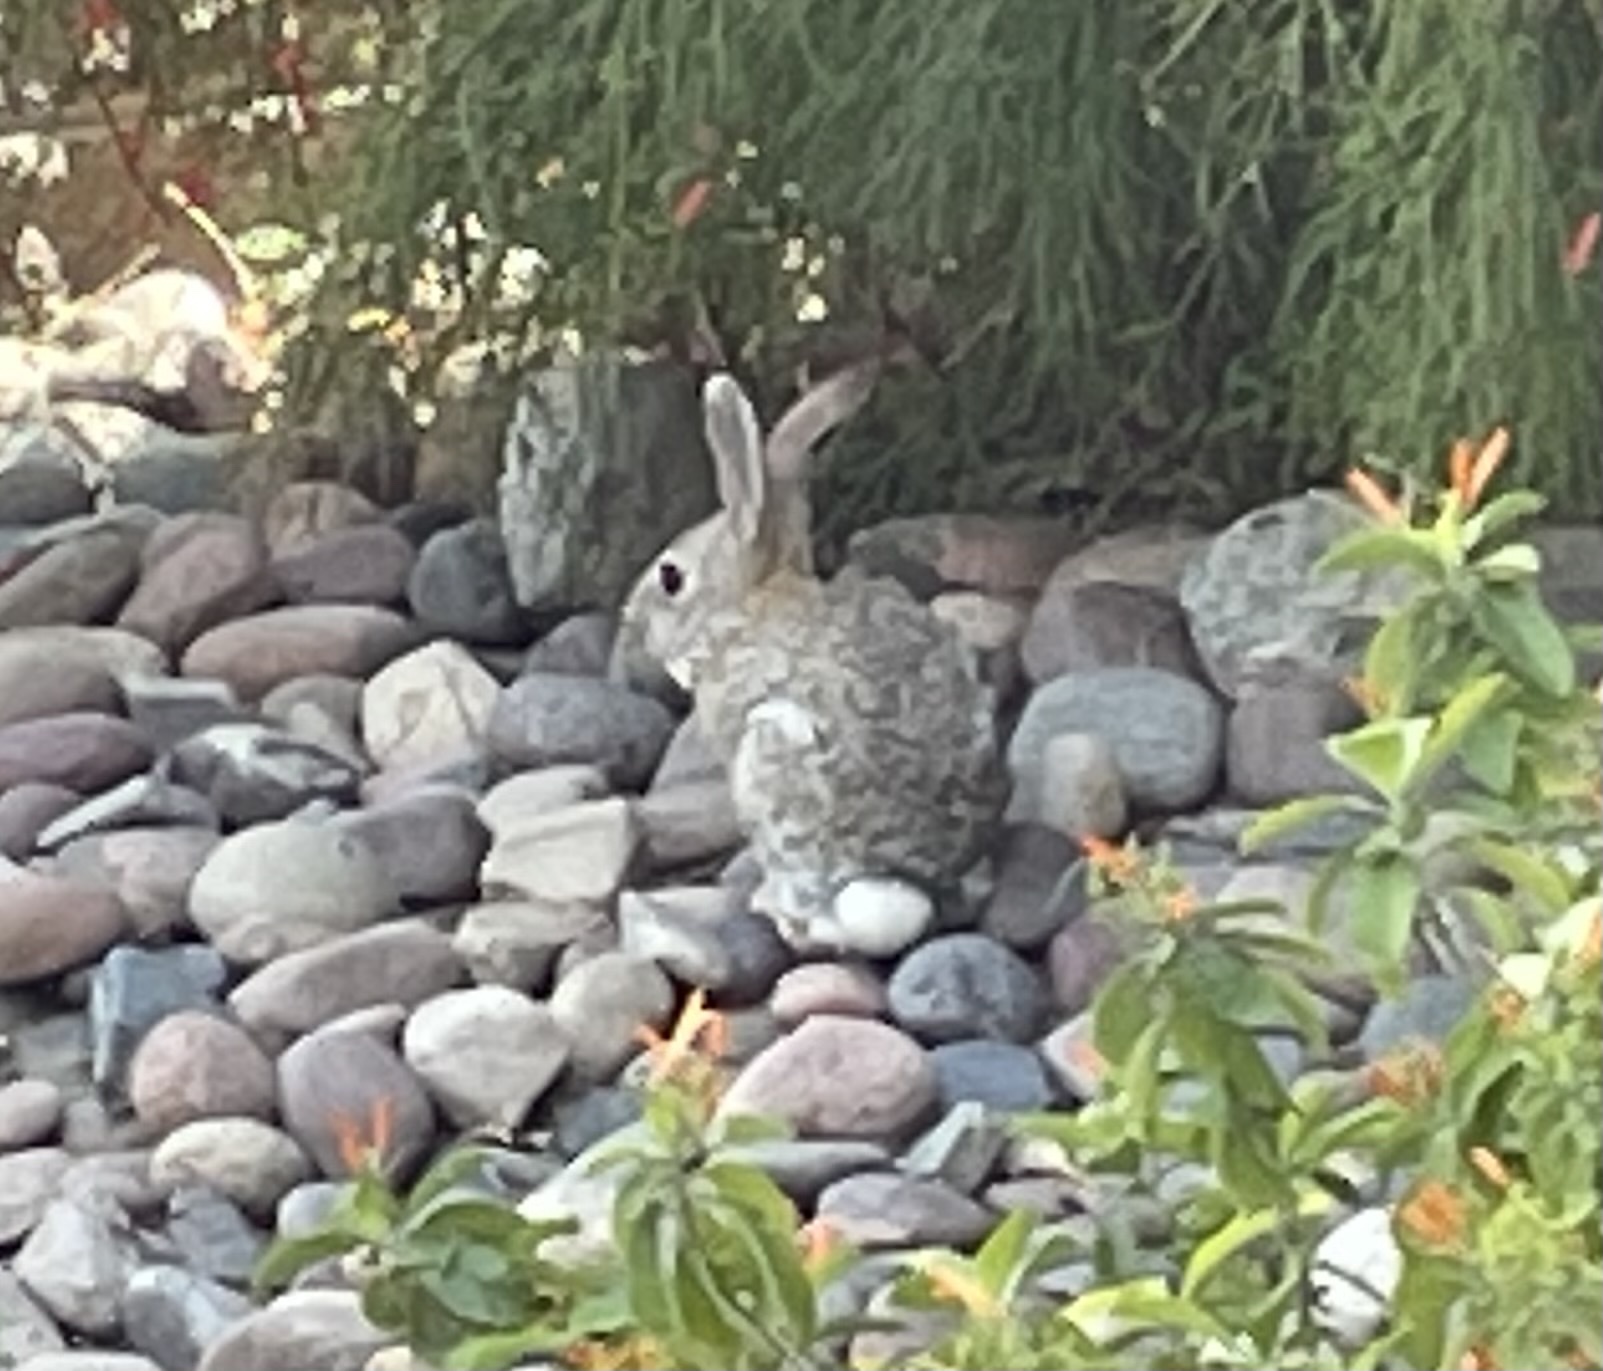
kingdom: Animalia
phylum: Chordata
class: Mammalia
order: Lagomorpha
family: Leporidae
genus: Sylvilagus
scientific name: Sylvilagus audubonii
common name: Desert cottontail
